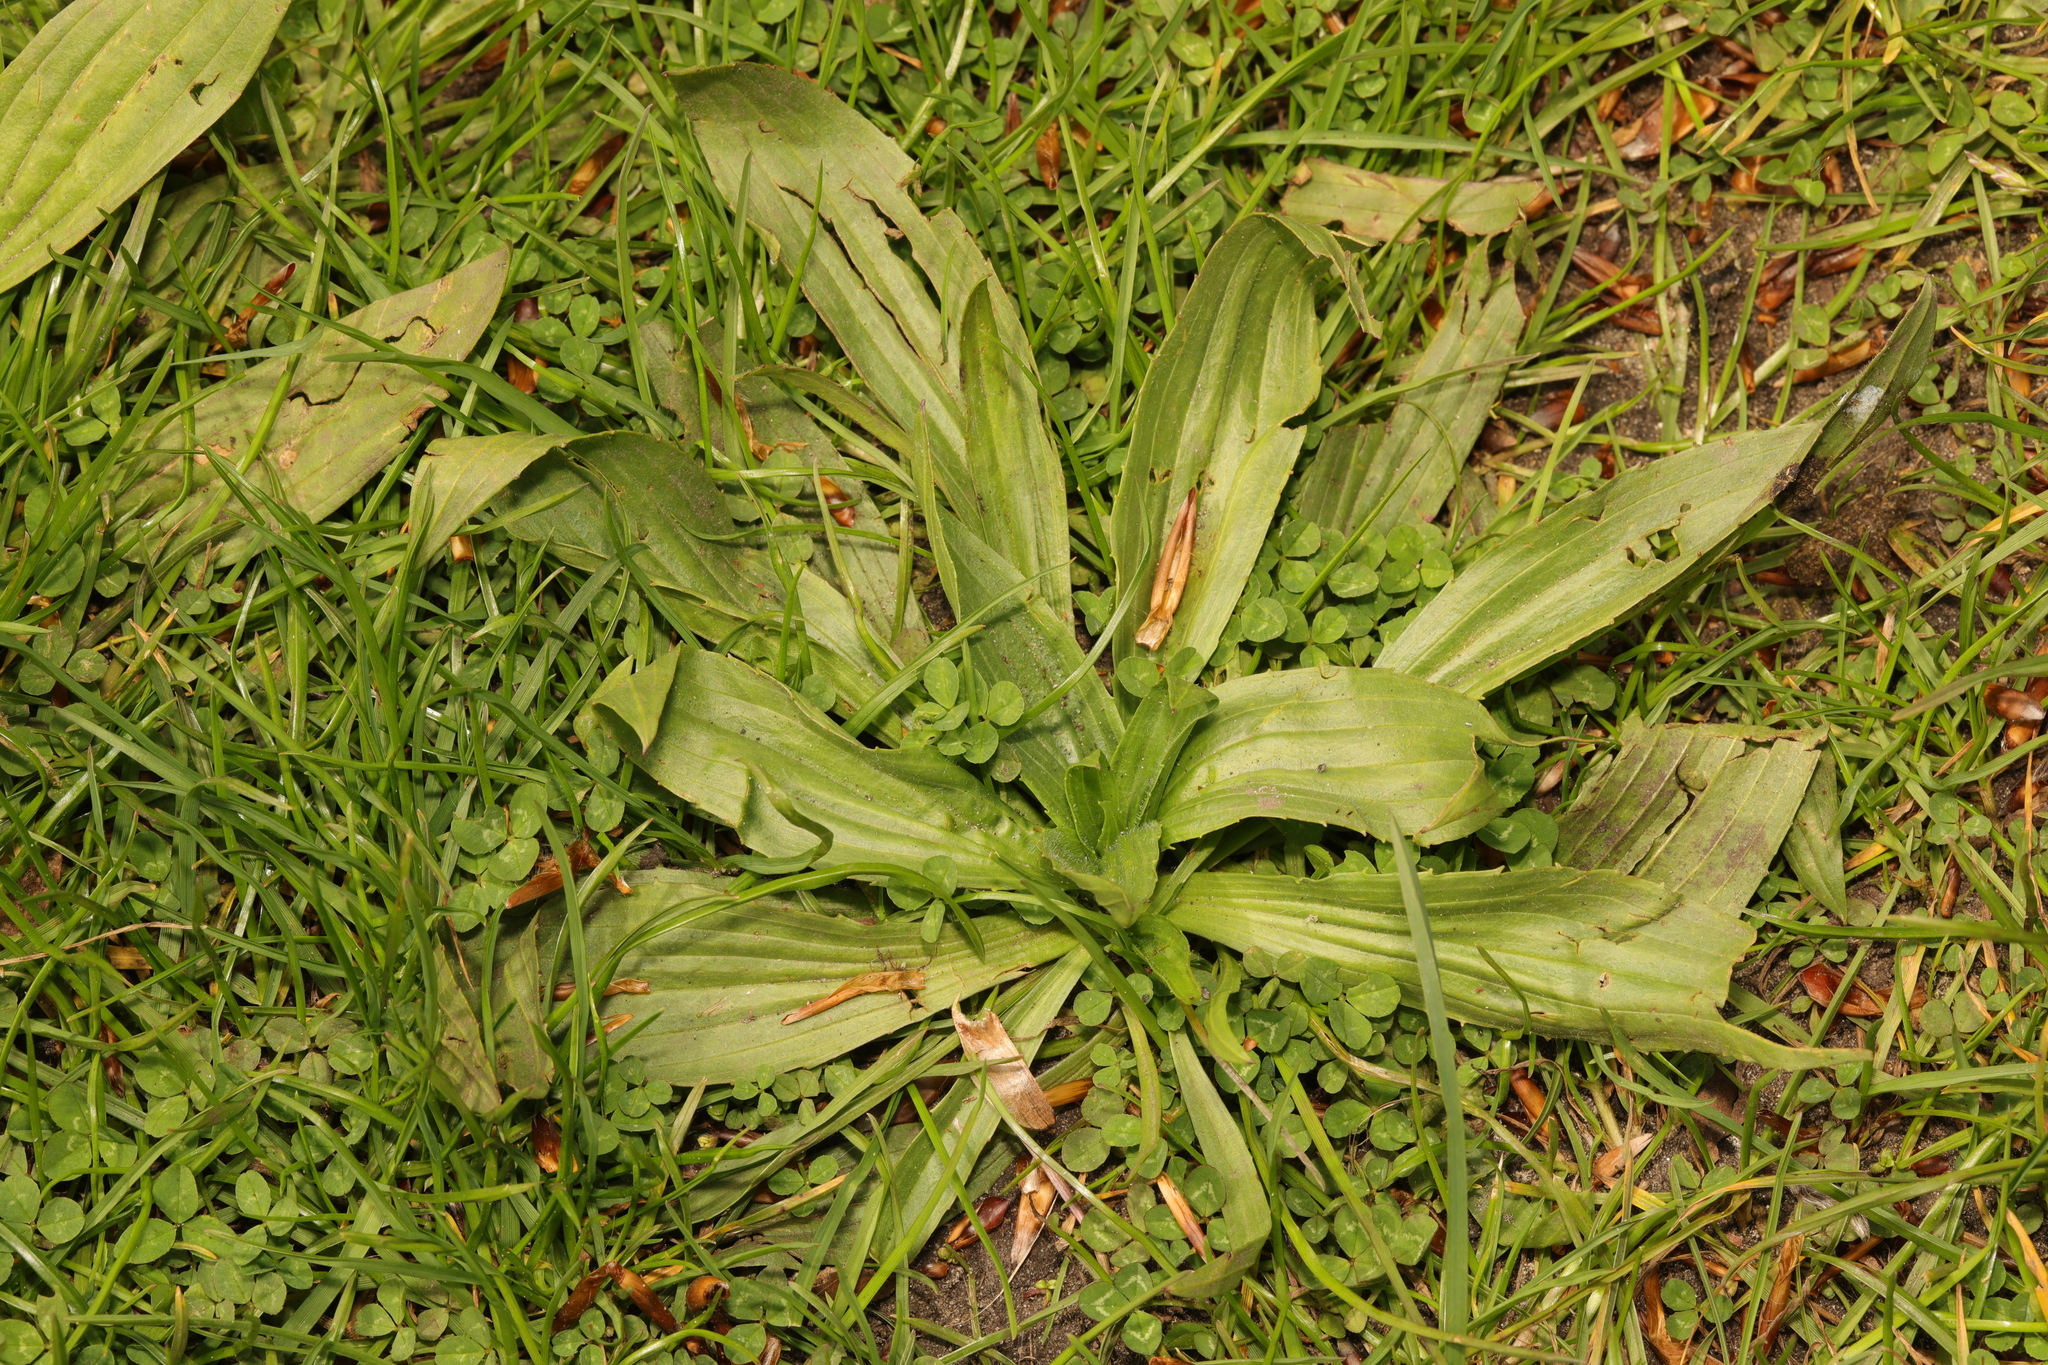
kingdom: Plantae
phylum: Tracheophyta
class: Magnoliopsida
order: Lamiales
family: Plantaginaceae
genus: Plantago
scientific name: Plantago lanceolata
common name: Ribwort plantain
